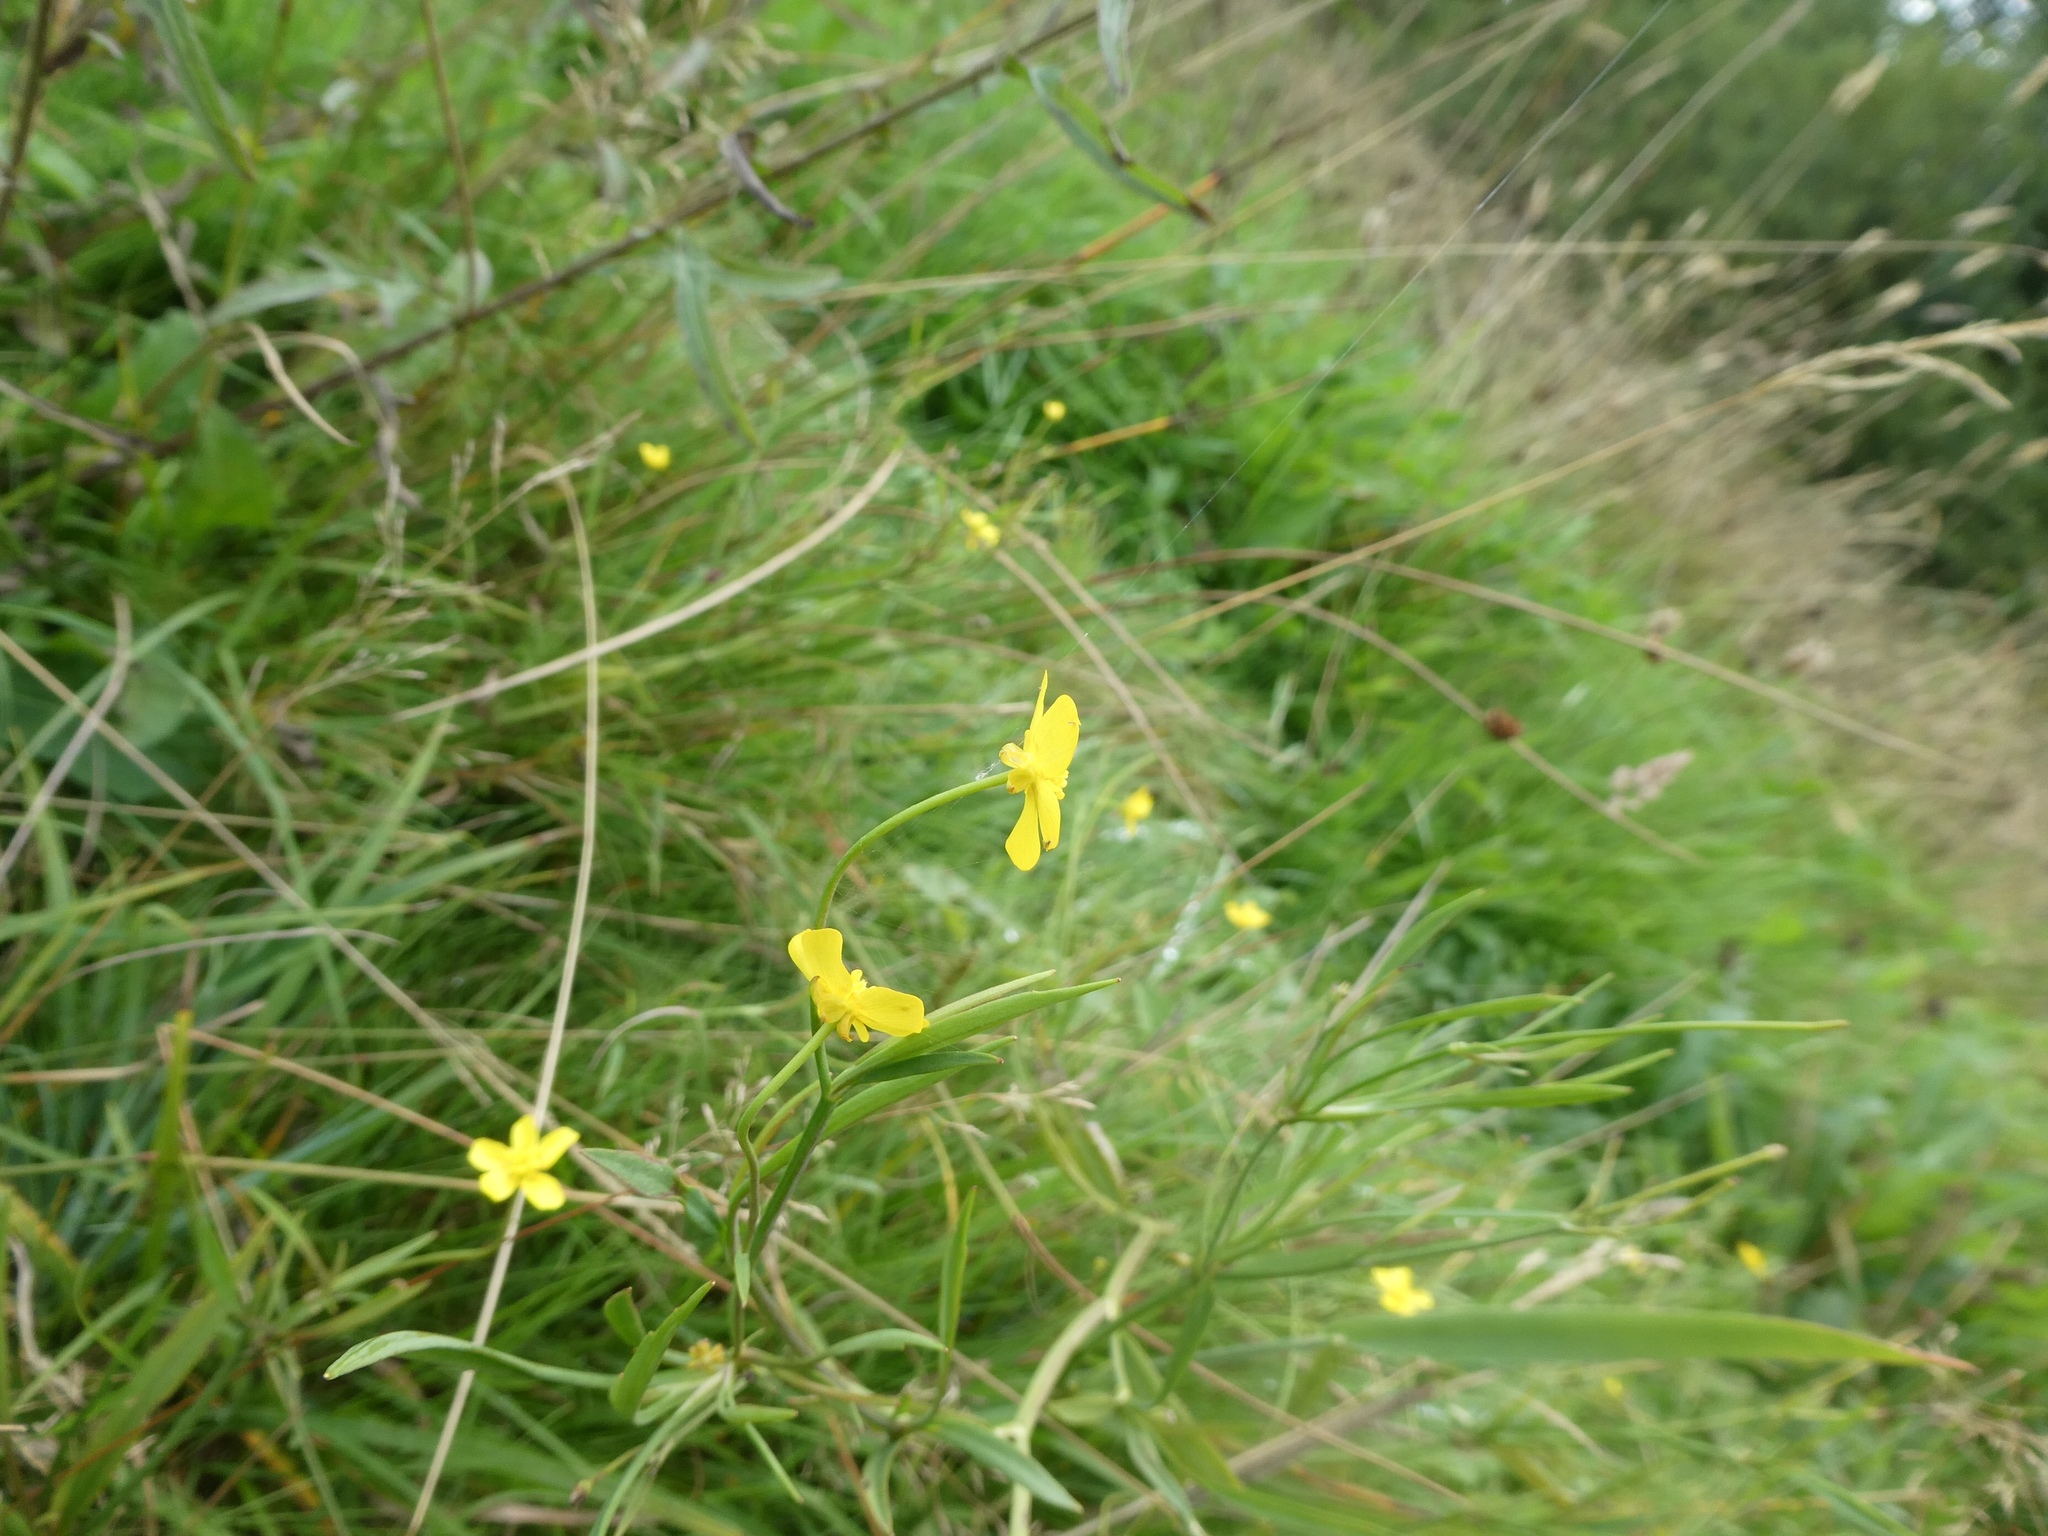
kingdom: Plantae
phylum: Tracheophyta
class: Magnoliopsida
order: Ranunculales
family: Ranunculaceae
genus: Ranunculus
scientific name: Ranunculus flammula
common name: Lesser spearwort
